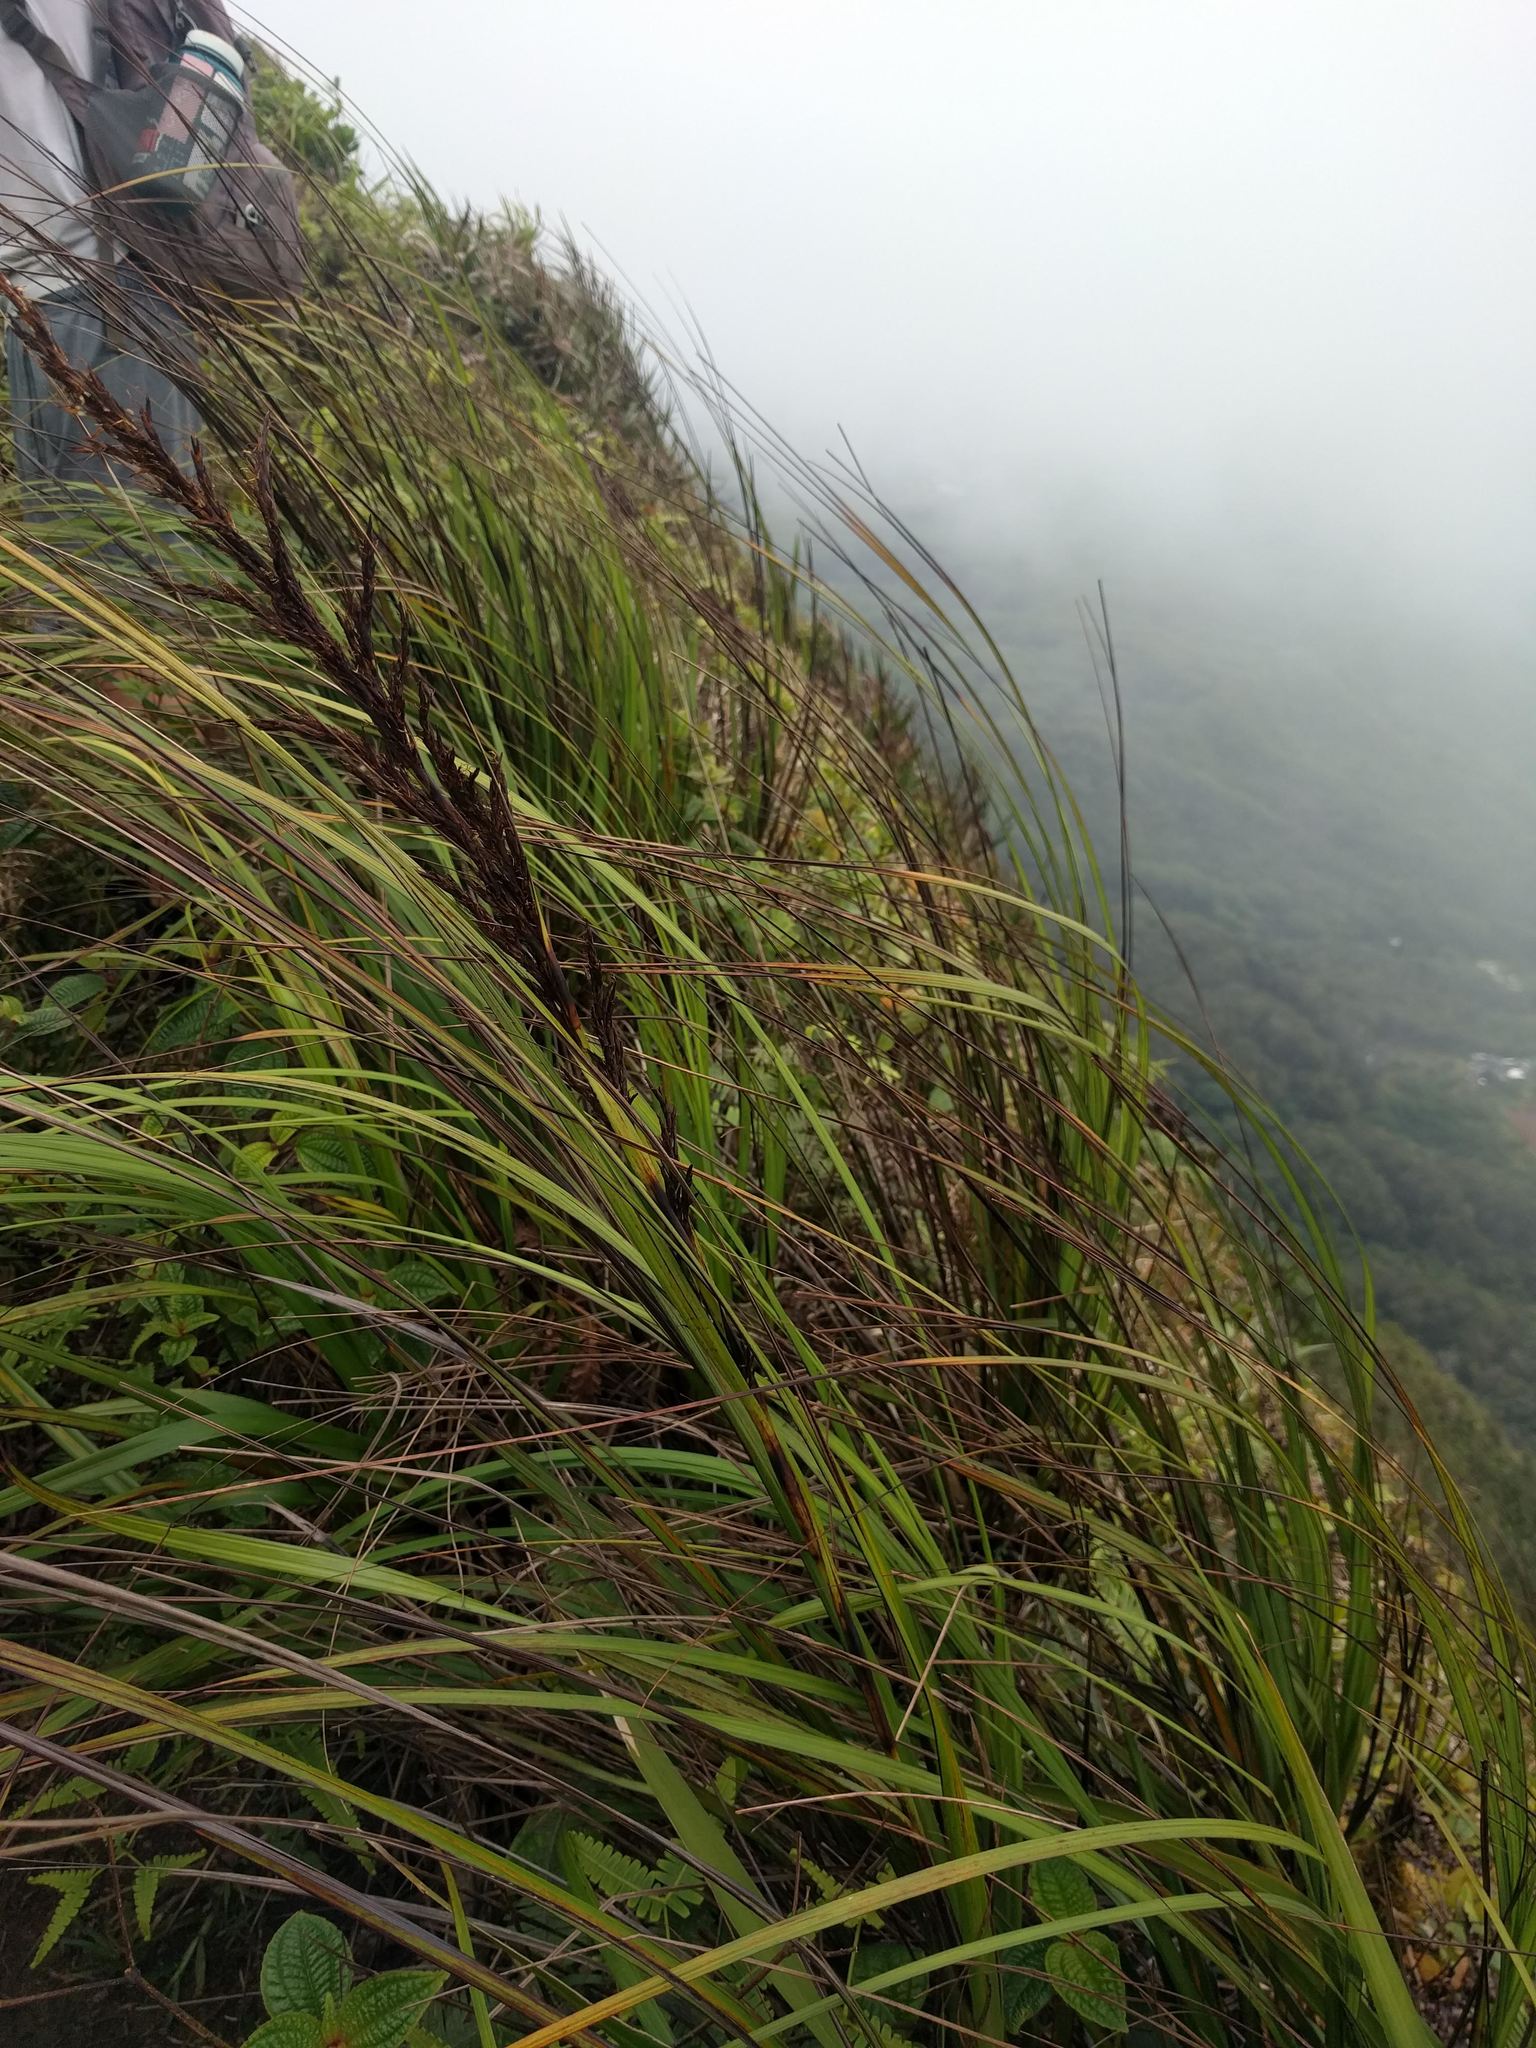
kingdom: Plantae
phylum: Tracheophyta
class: Liliopsida
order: Poales
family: Cyperaceae
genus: Gahnia
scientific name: Gahnia beecheyi
